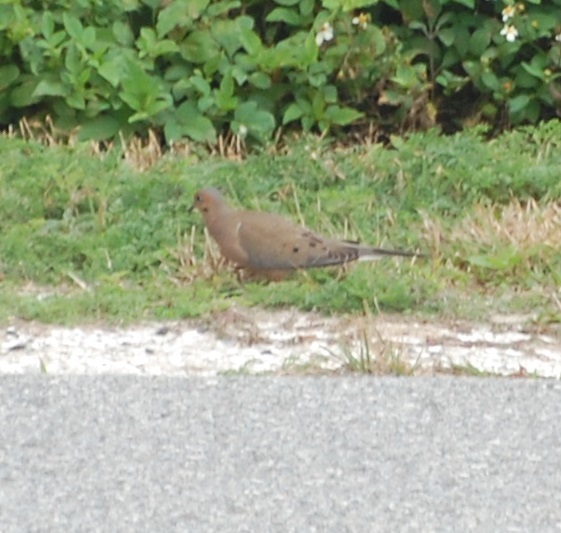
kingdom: Animalia
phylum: Chordata
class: Aves
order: Columbiformes
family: Columbidae
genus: Zenaida
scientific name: Zenaida macroura
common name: Mourning dove
